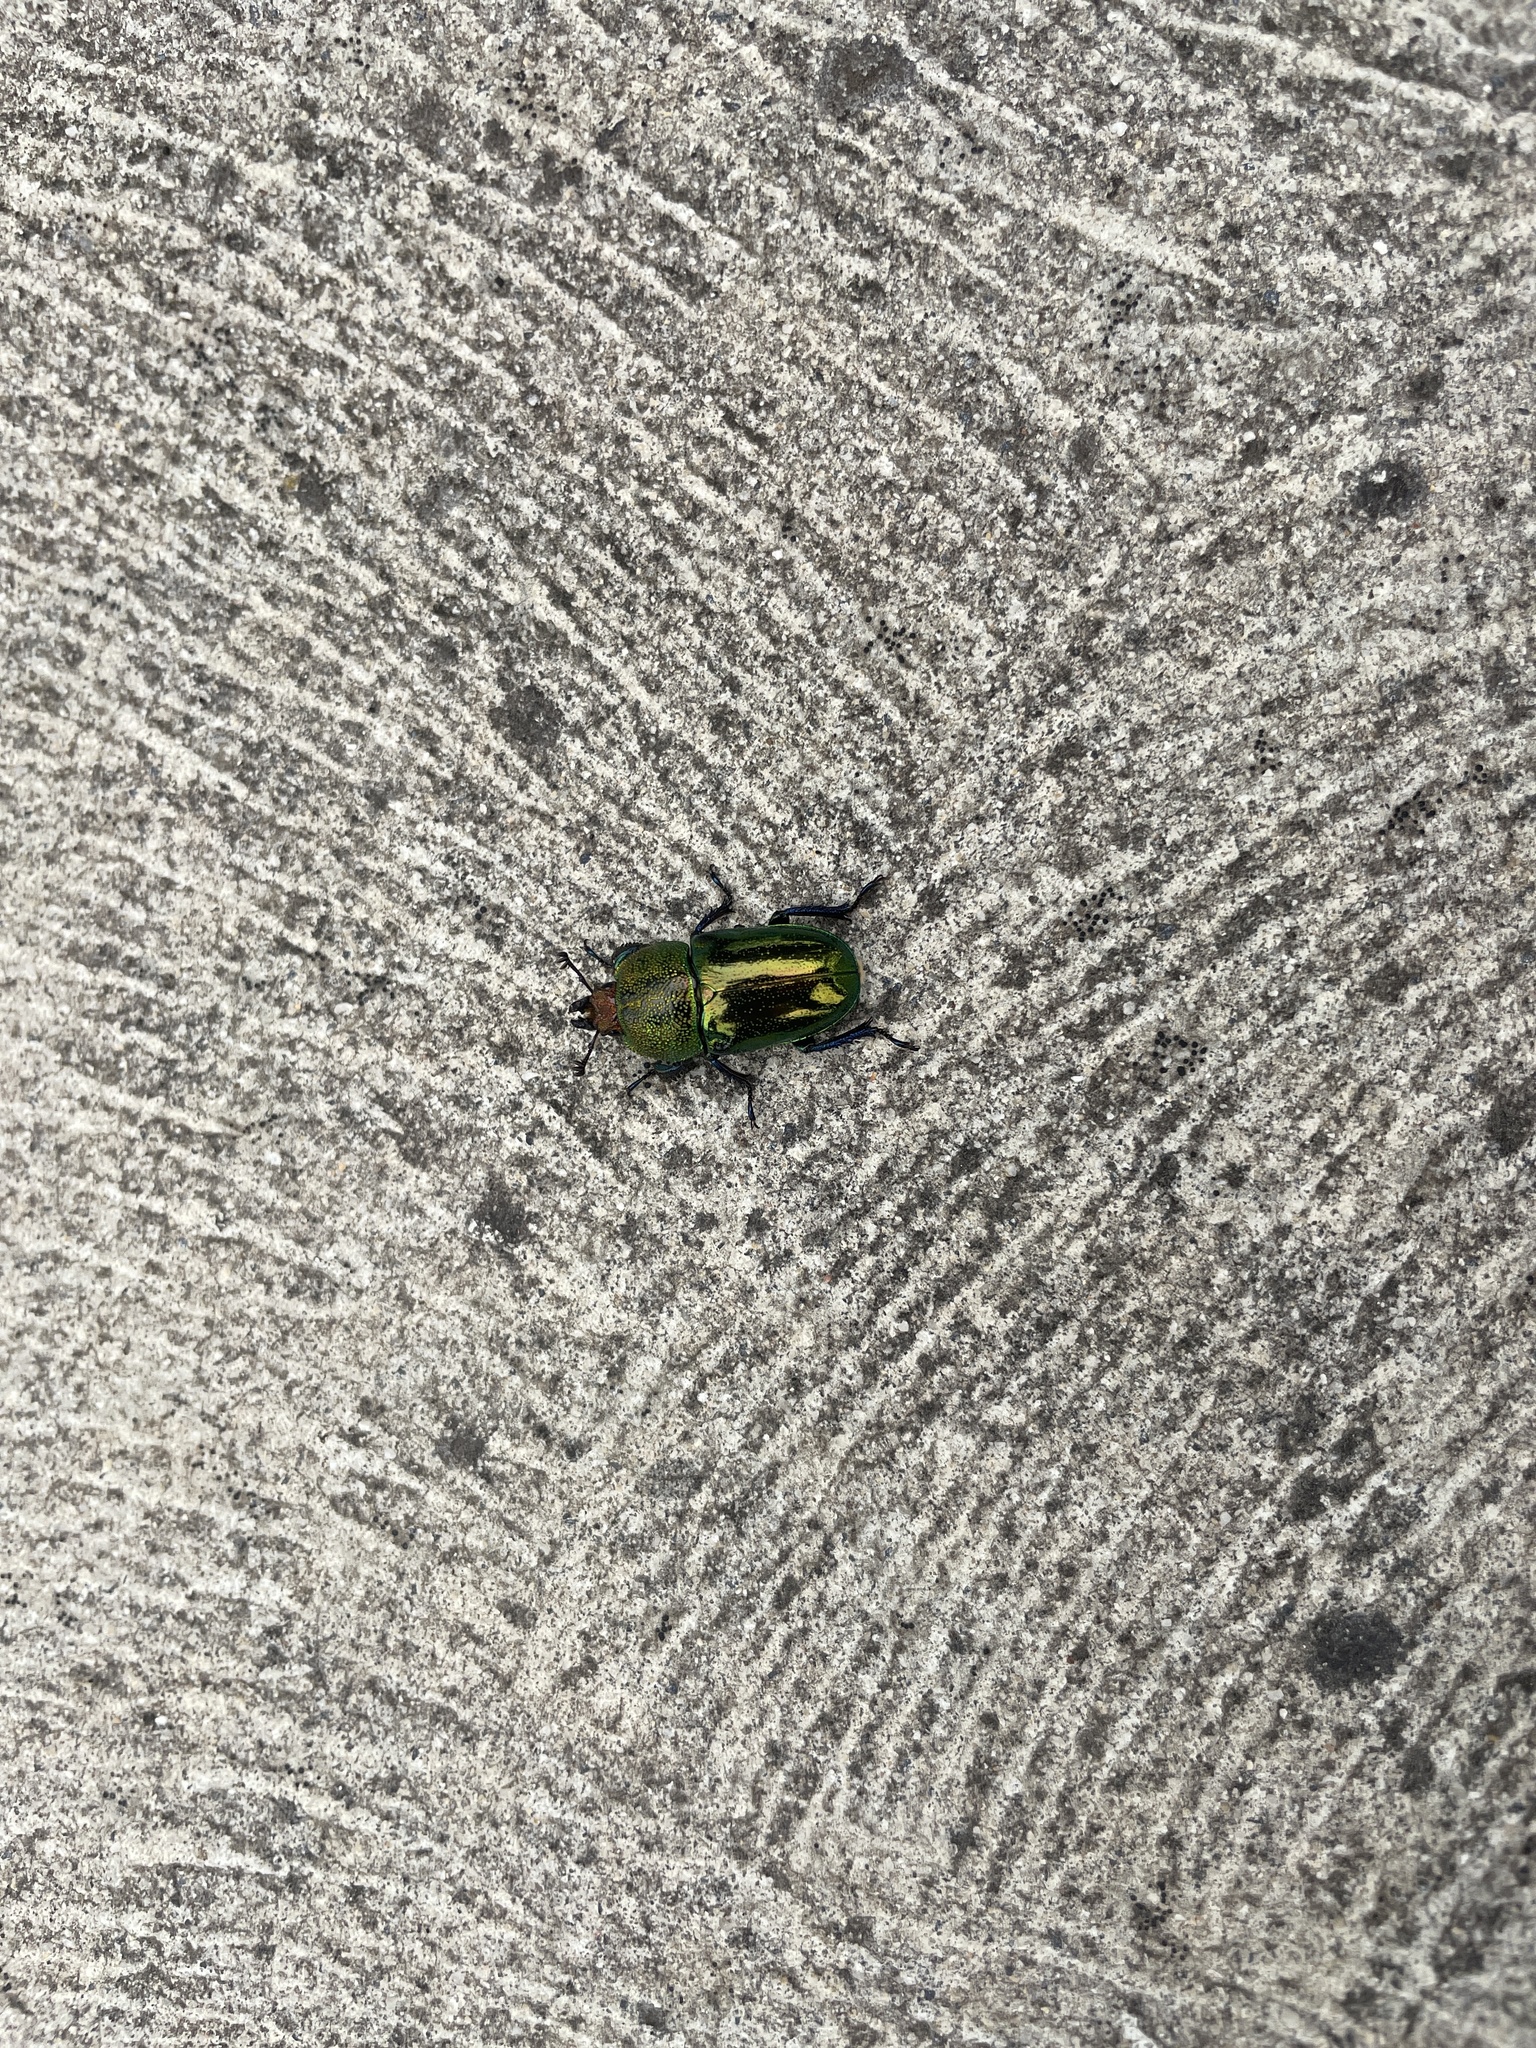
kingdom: Animalia
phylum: Arthropoda
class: Insecta
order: Coleoptera
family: Lucanidae
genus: Lamprima
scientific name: Lamprima aurata
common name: Golden stag beetle
